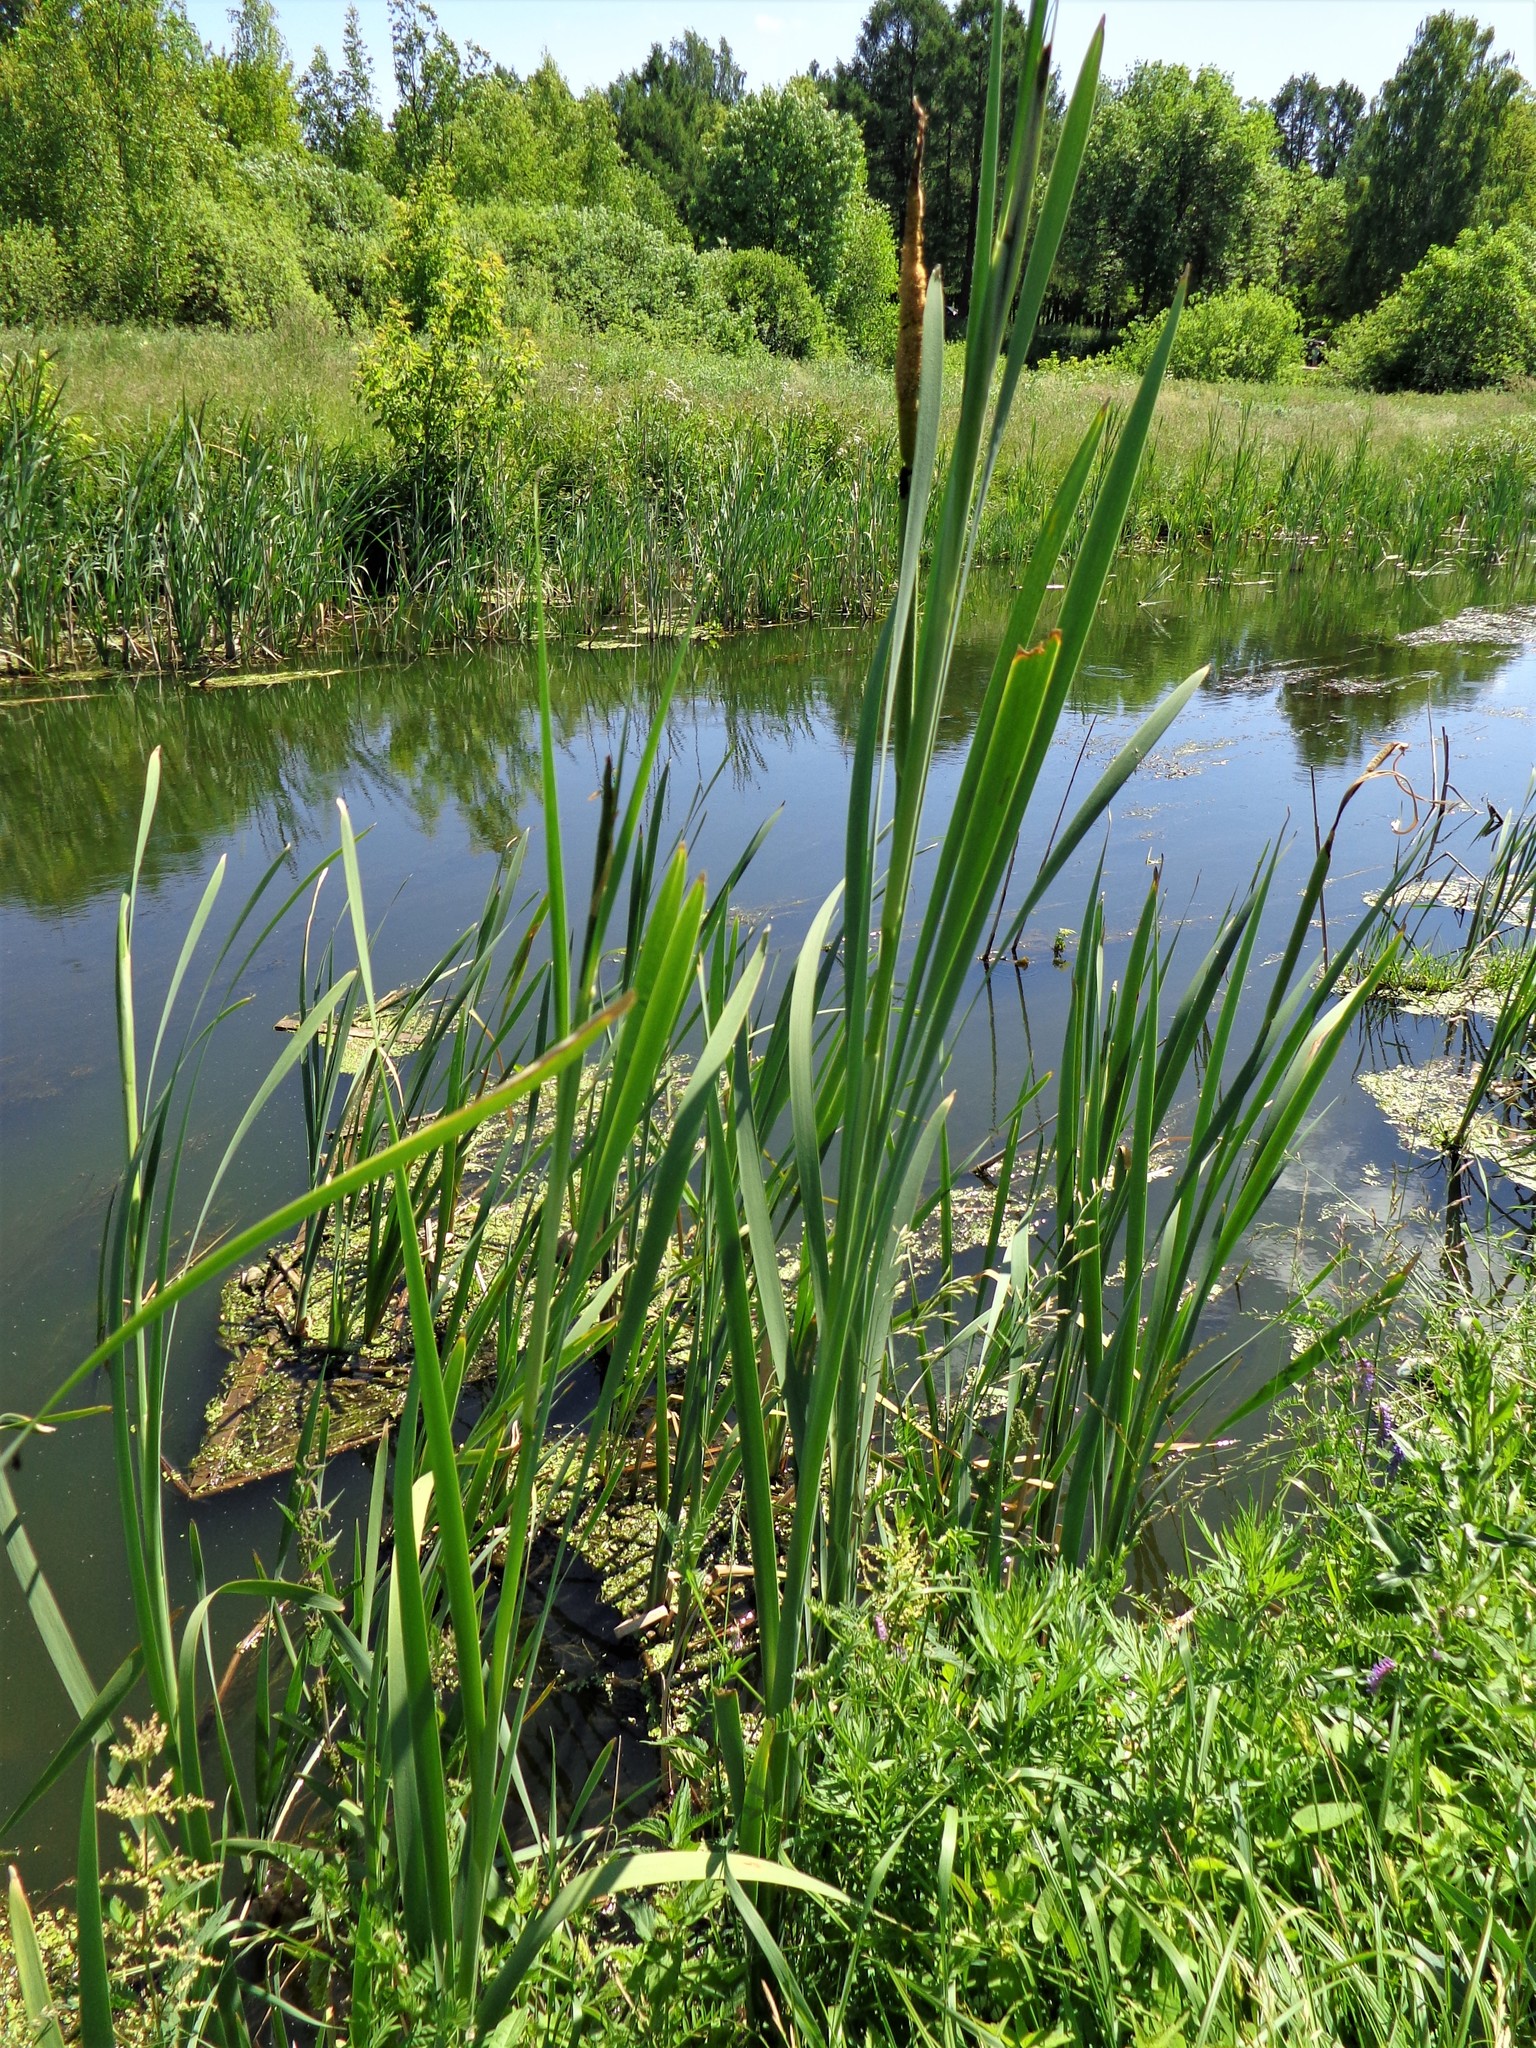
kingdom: Plantae
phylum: Tracheophyta
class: Liliopsida
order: Poales
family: Typhaceae
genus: Typha
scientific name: Typha latifolia
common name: Broadleaf cattail
